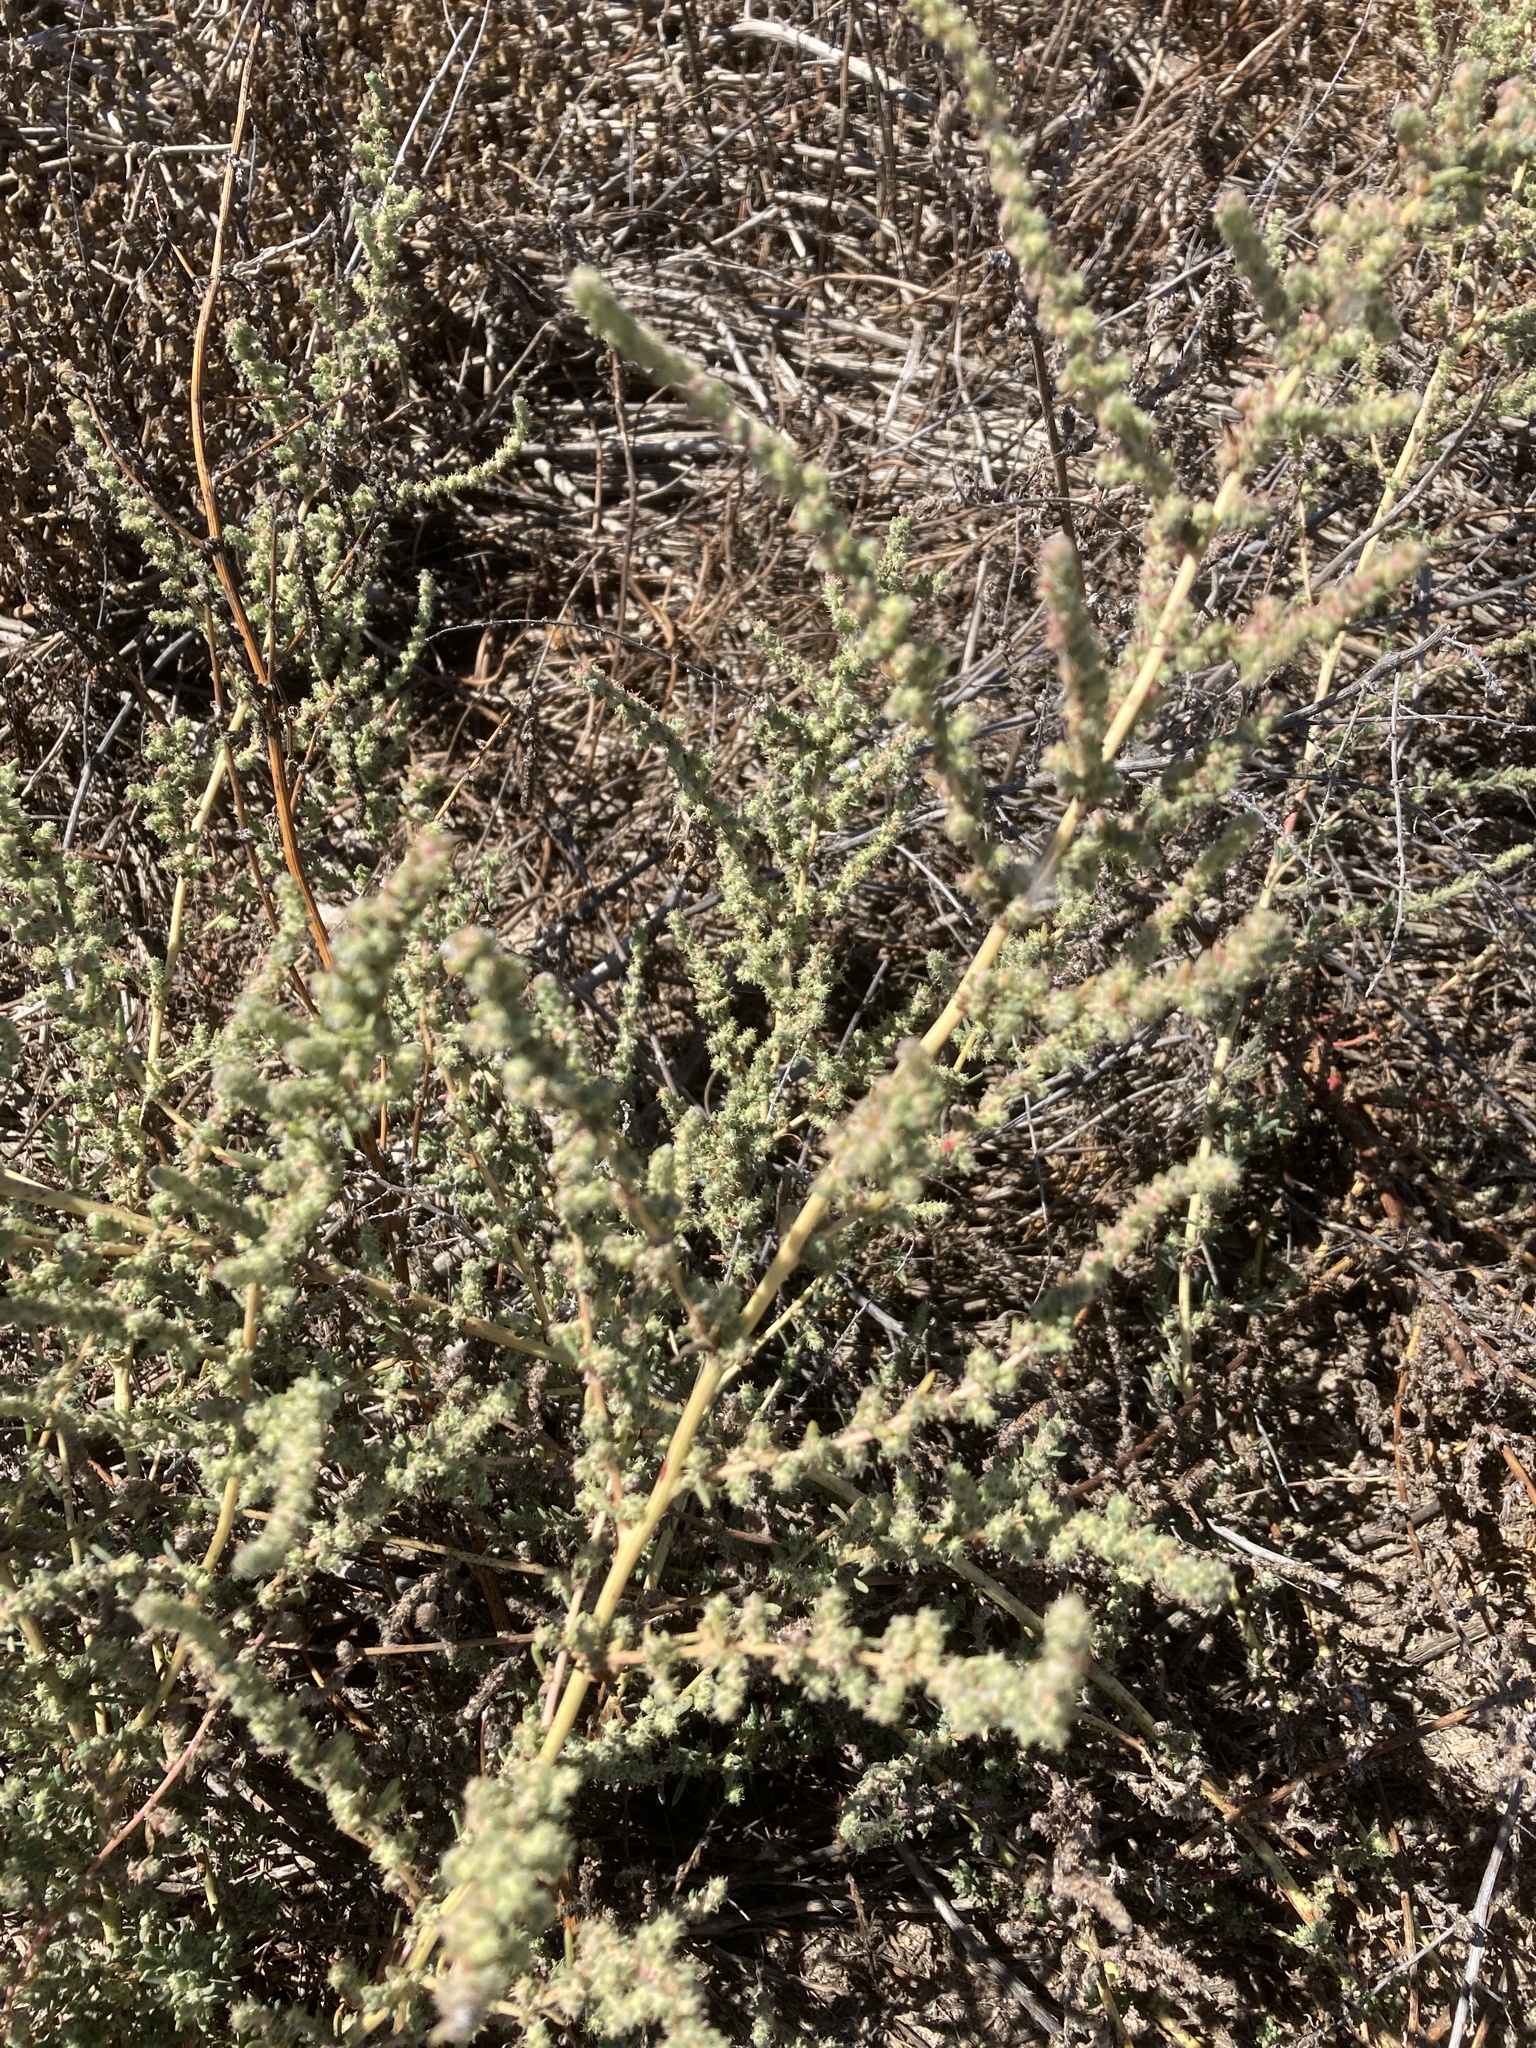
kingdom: Plantae
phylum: Tracheophyta
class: Magnoliopsida
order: Caryophyllales
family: Amaranthaceae
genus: Bassia
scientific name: Bassia hyssopifolia
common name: Fivehorn smotherweed
